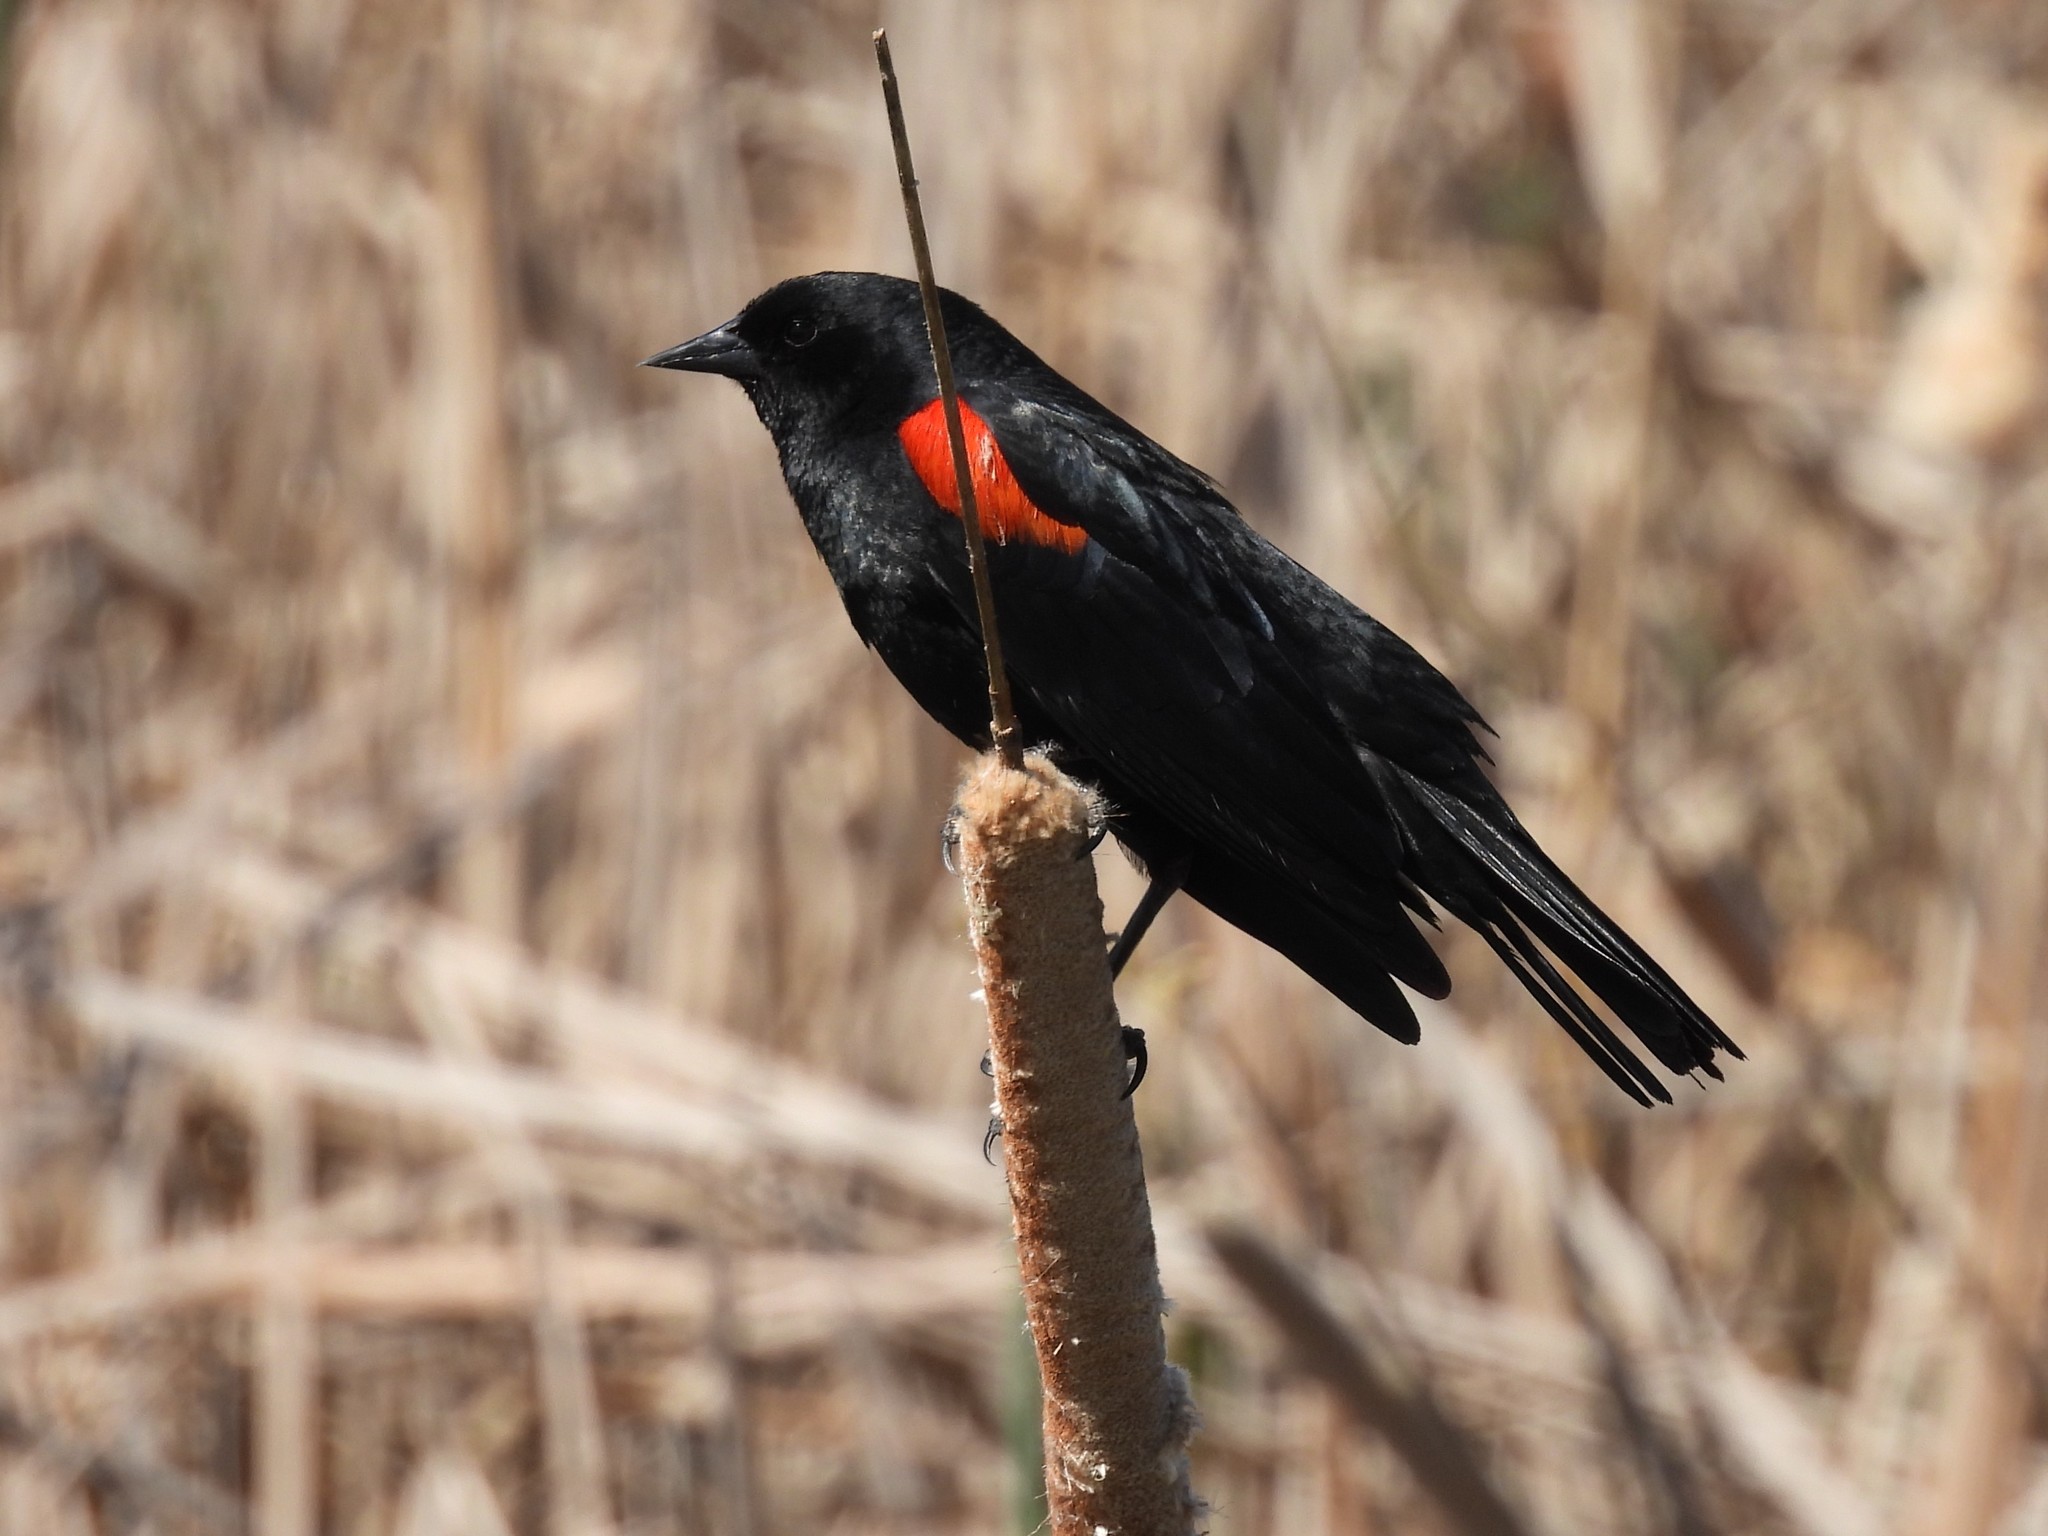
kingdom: Animalia
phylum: Chordata
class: Aves
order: Passeriformes
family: Icteridae
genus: Agelaius
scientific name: Agelaius phoeniceus
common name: Red-winged blackbird
